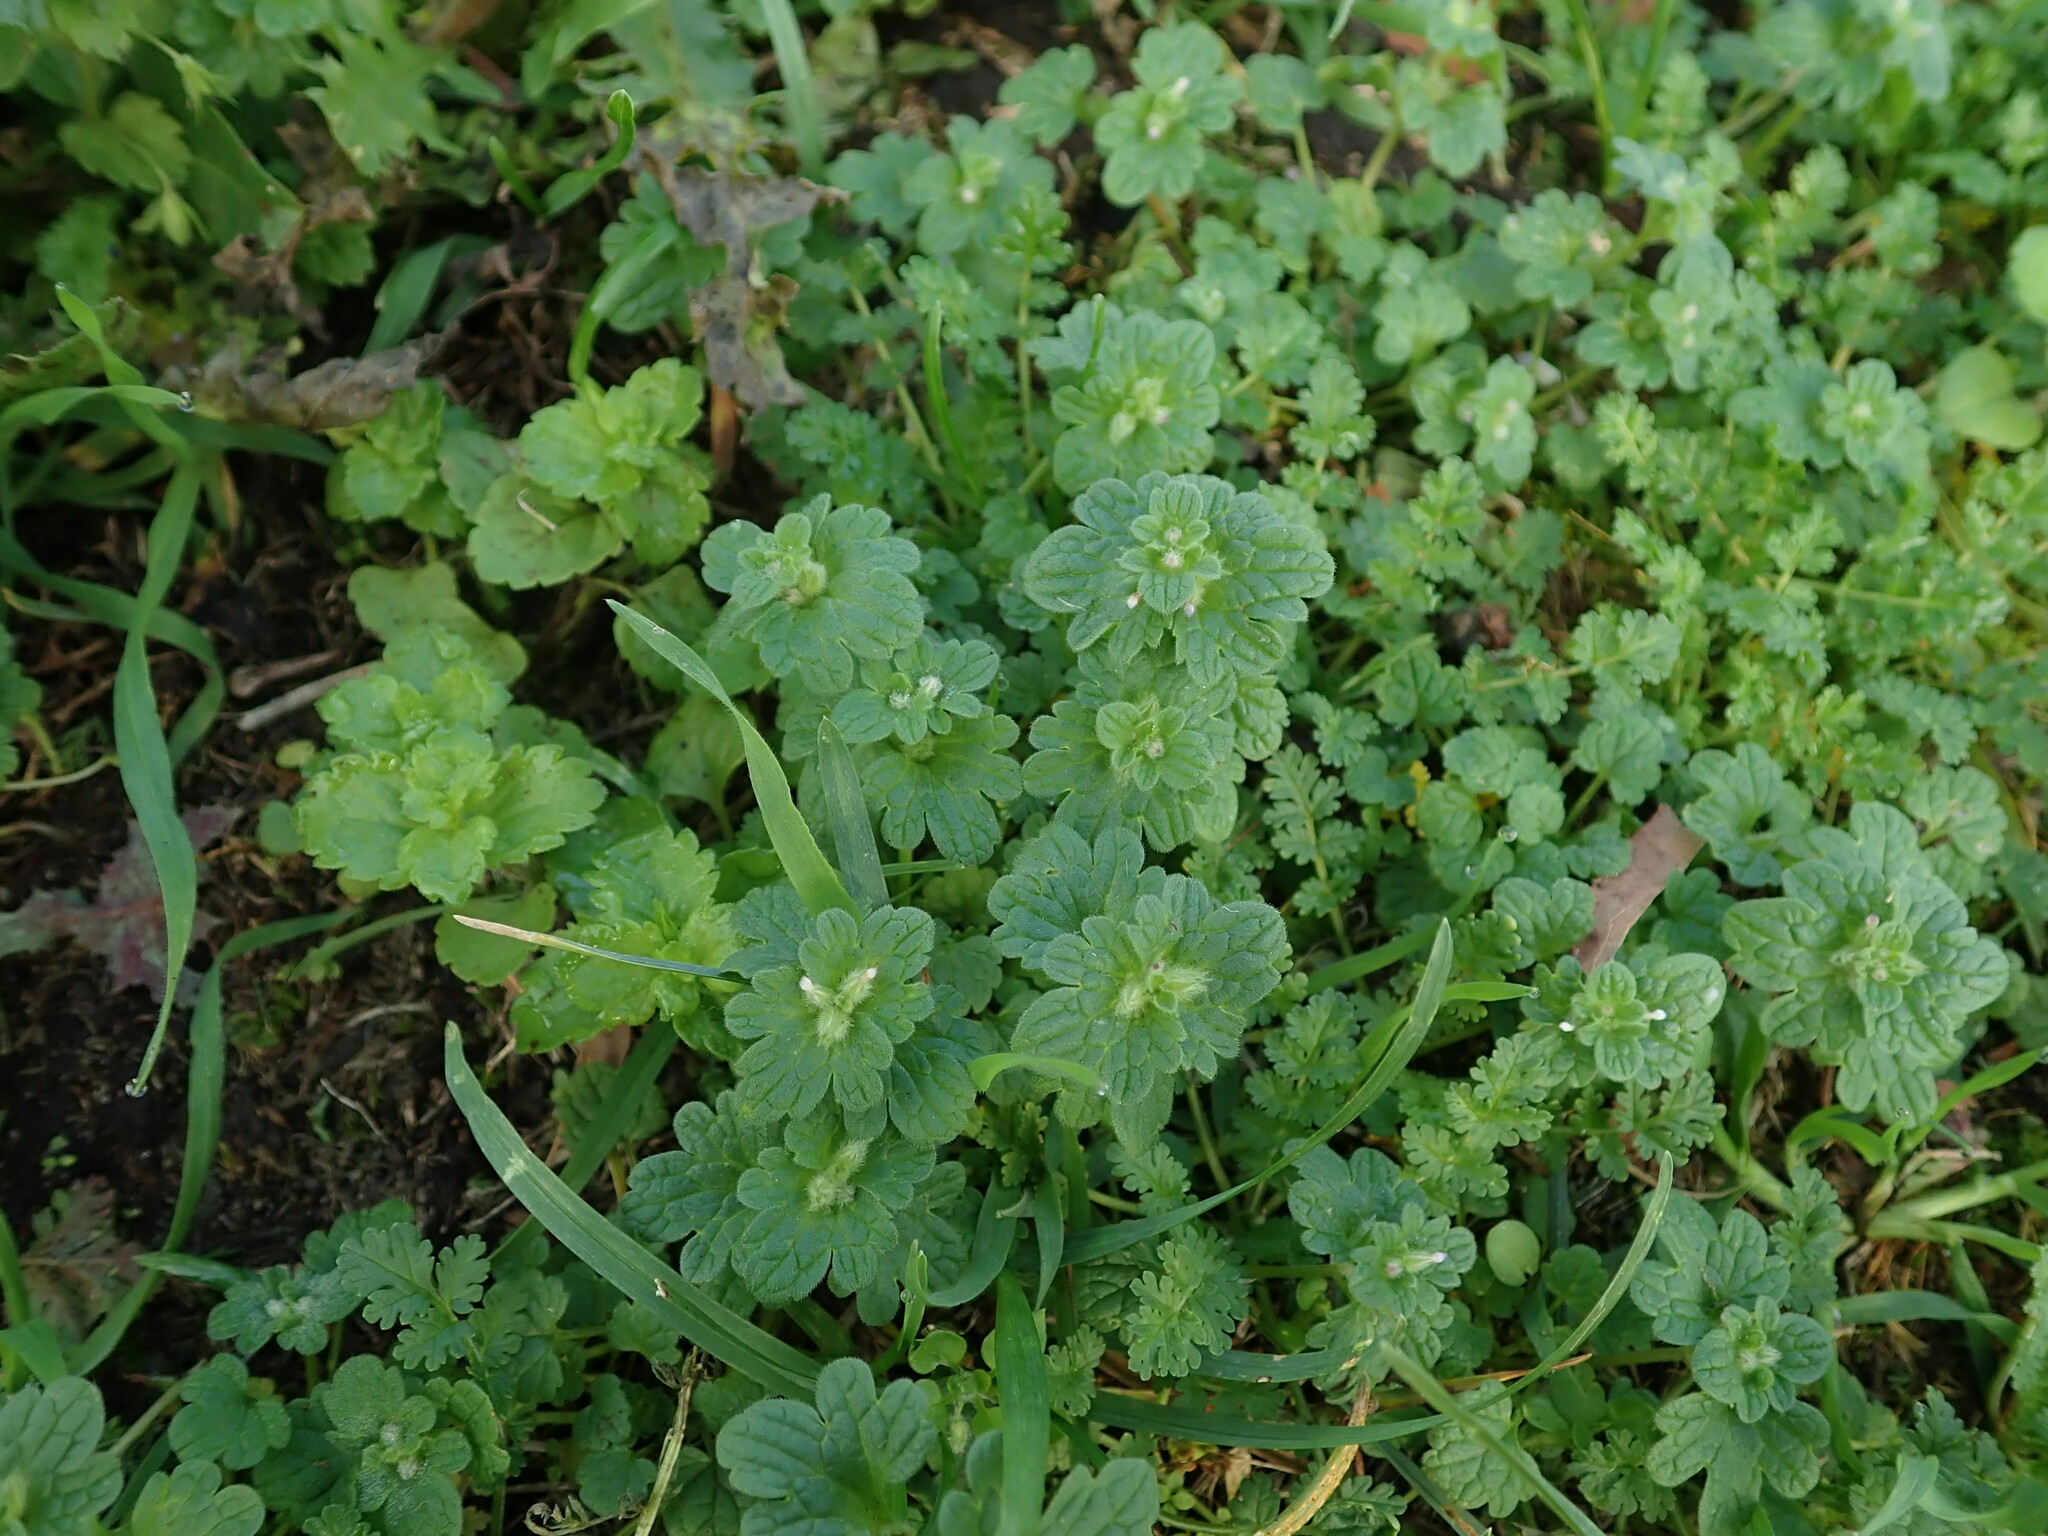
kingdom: Plantae
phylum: Tracheophyta
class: Magnoliopsida
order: Lamiales
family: Lamiaceae
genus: Lamium
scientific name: Lamium amplexicaule
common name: Henbit dead-nettle
